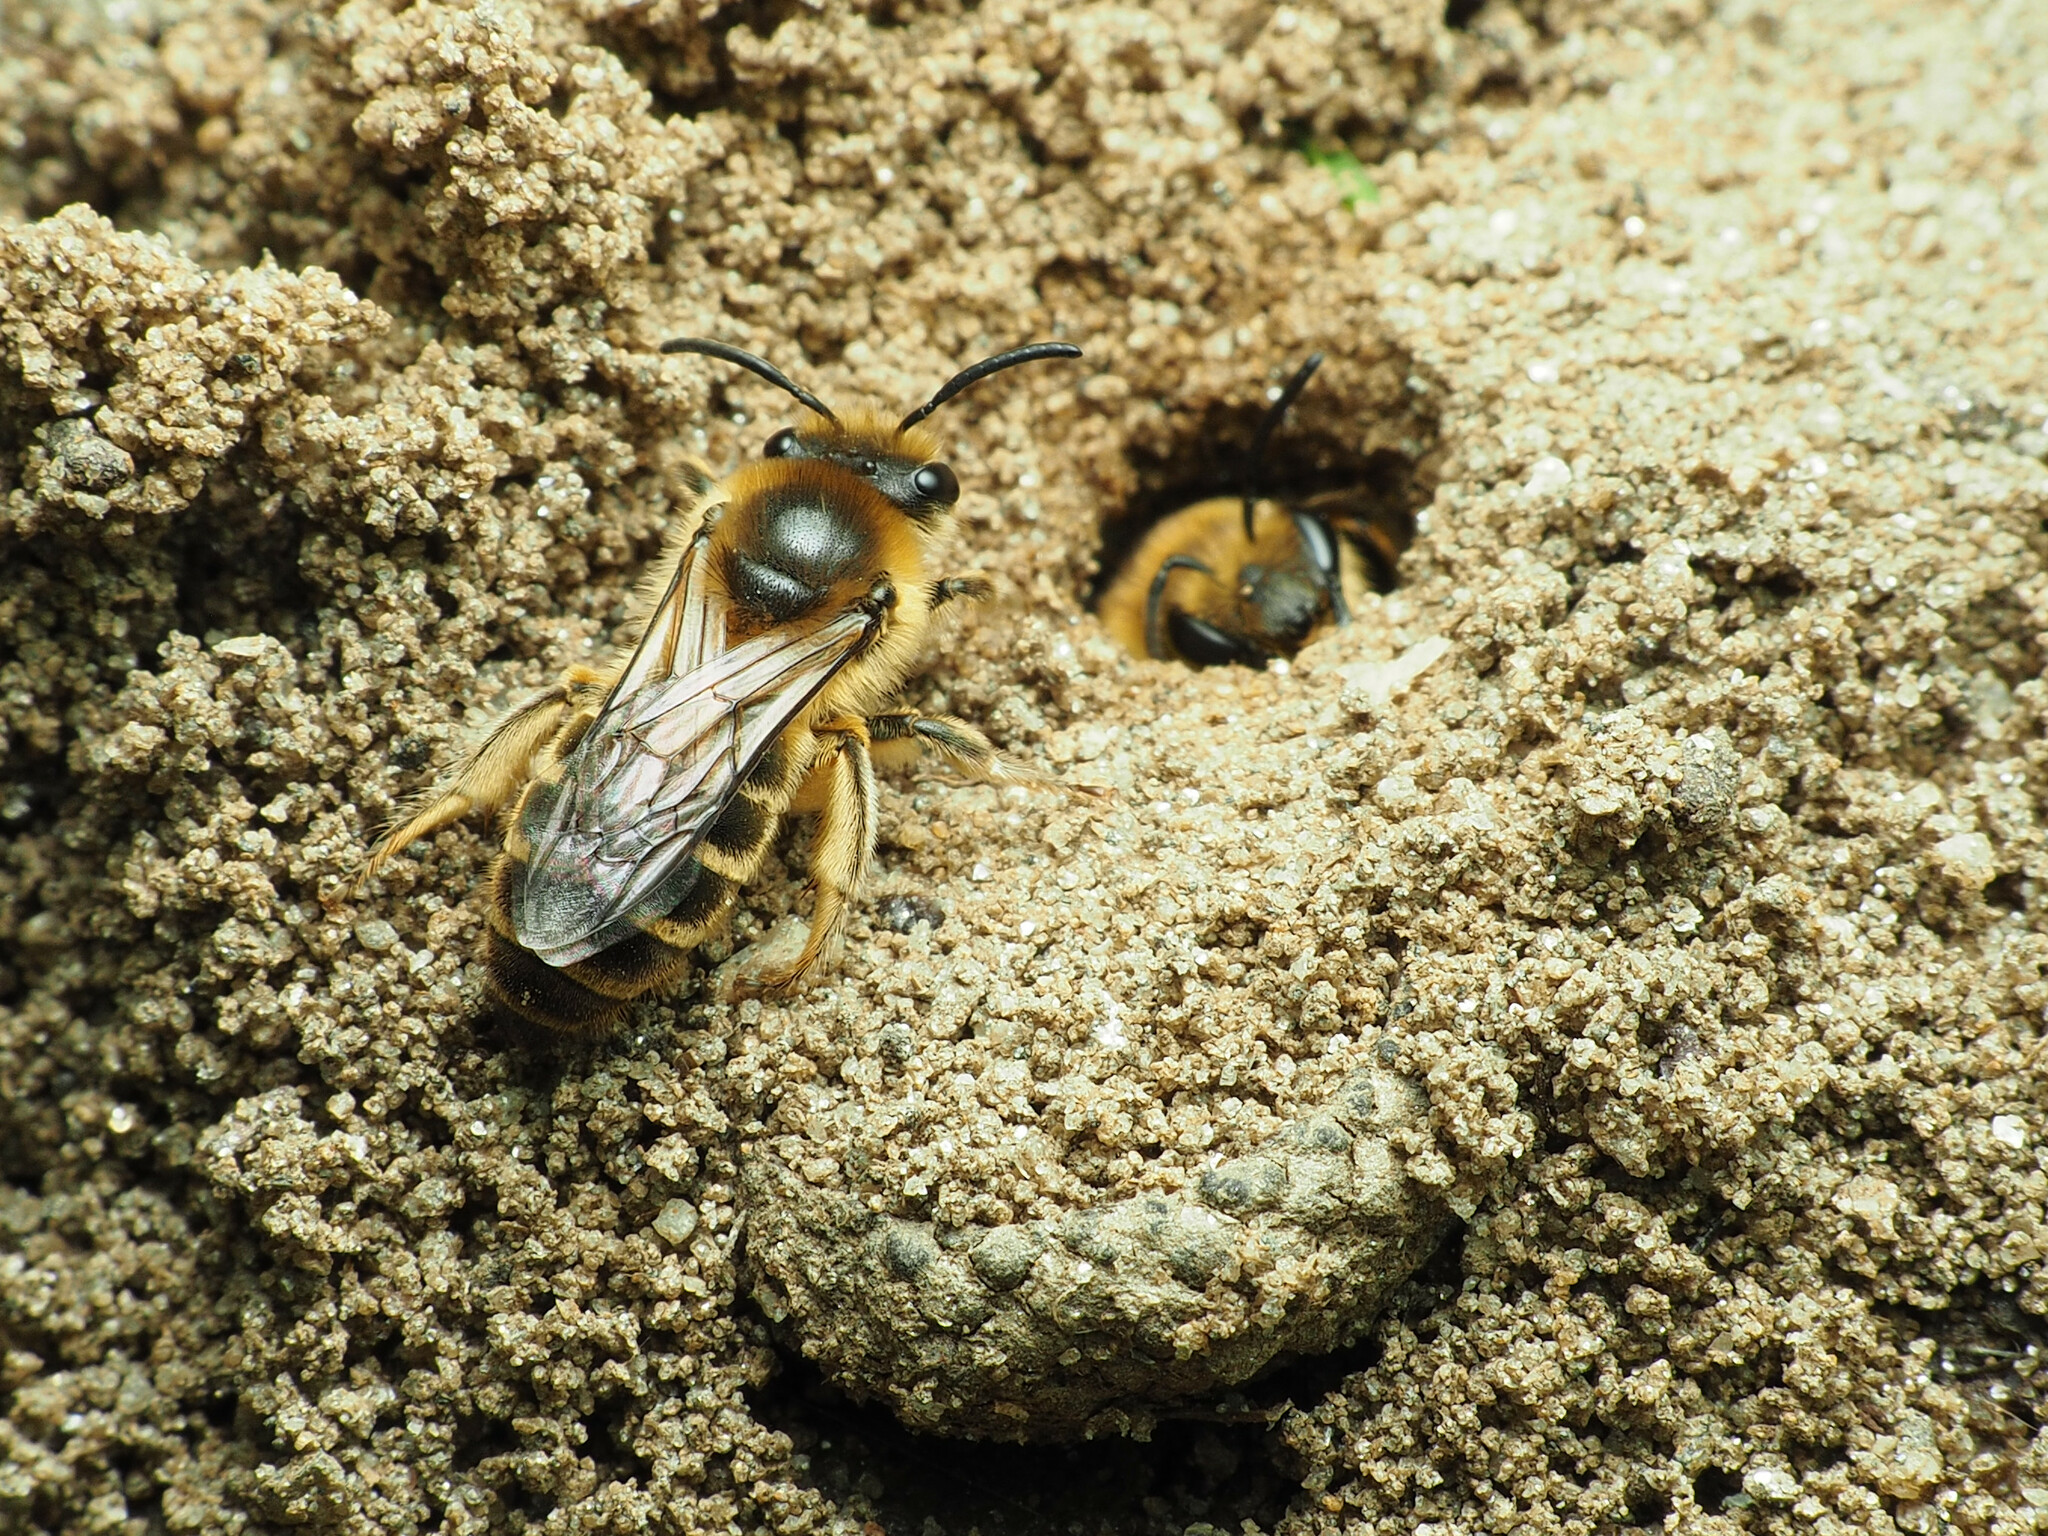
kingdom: Animalia
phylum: Arthropoda
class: Insecta
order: Hymenoptera
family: Colletidae
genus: Colletes
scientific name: Colletes inaequalis
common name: Unequal cellophane bee
